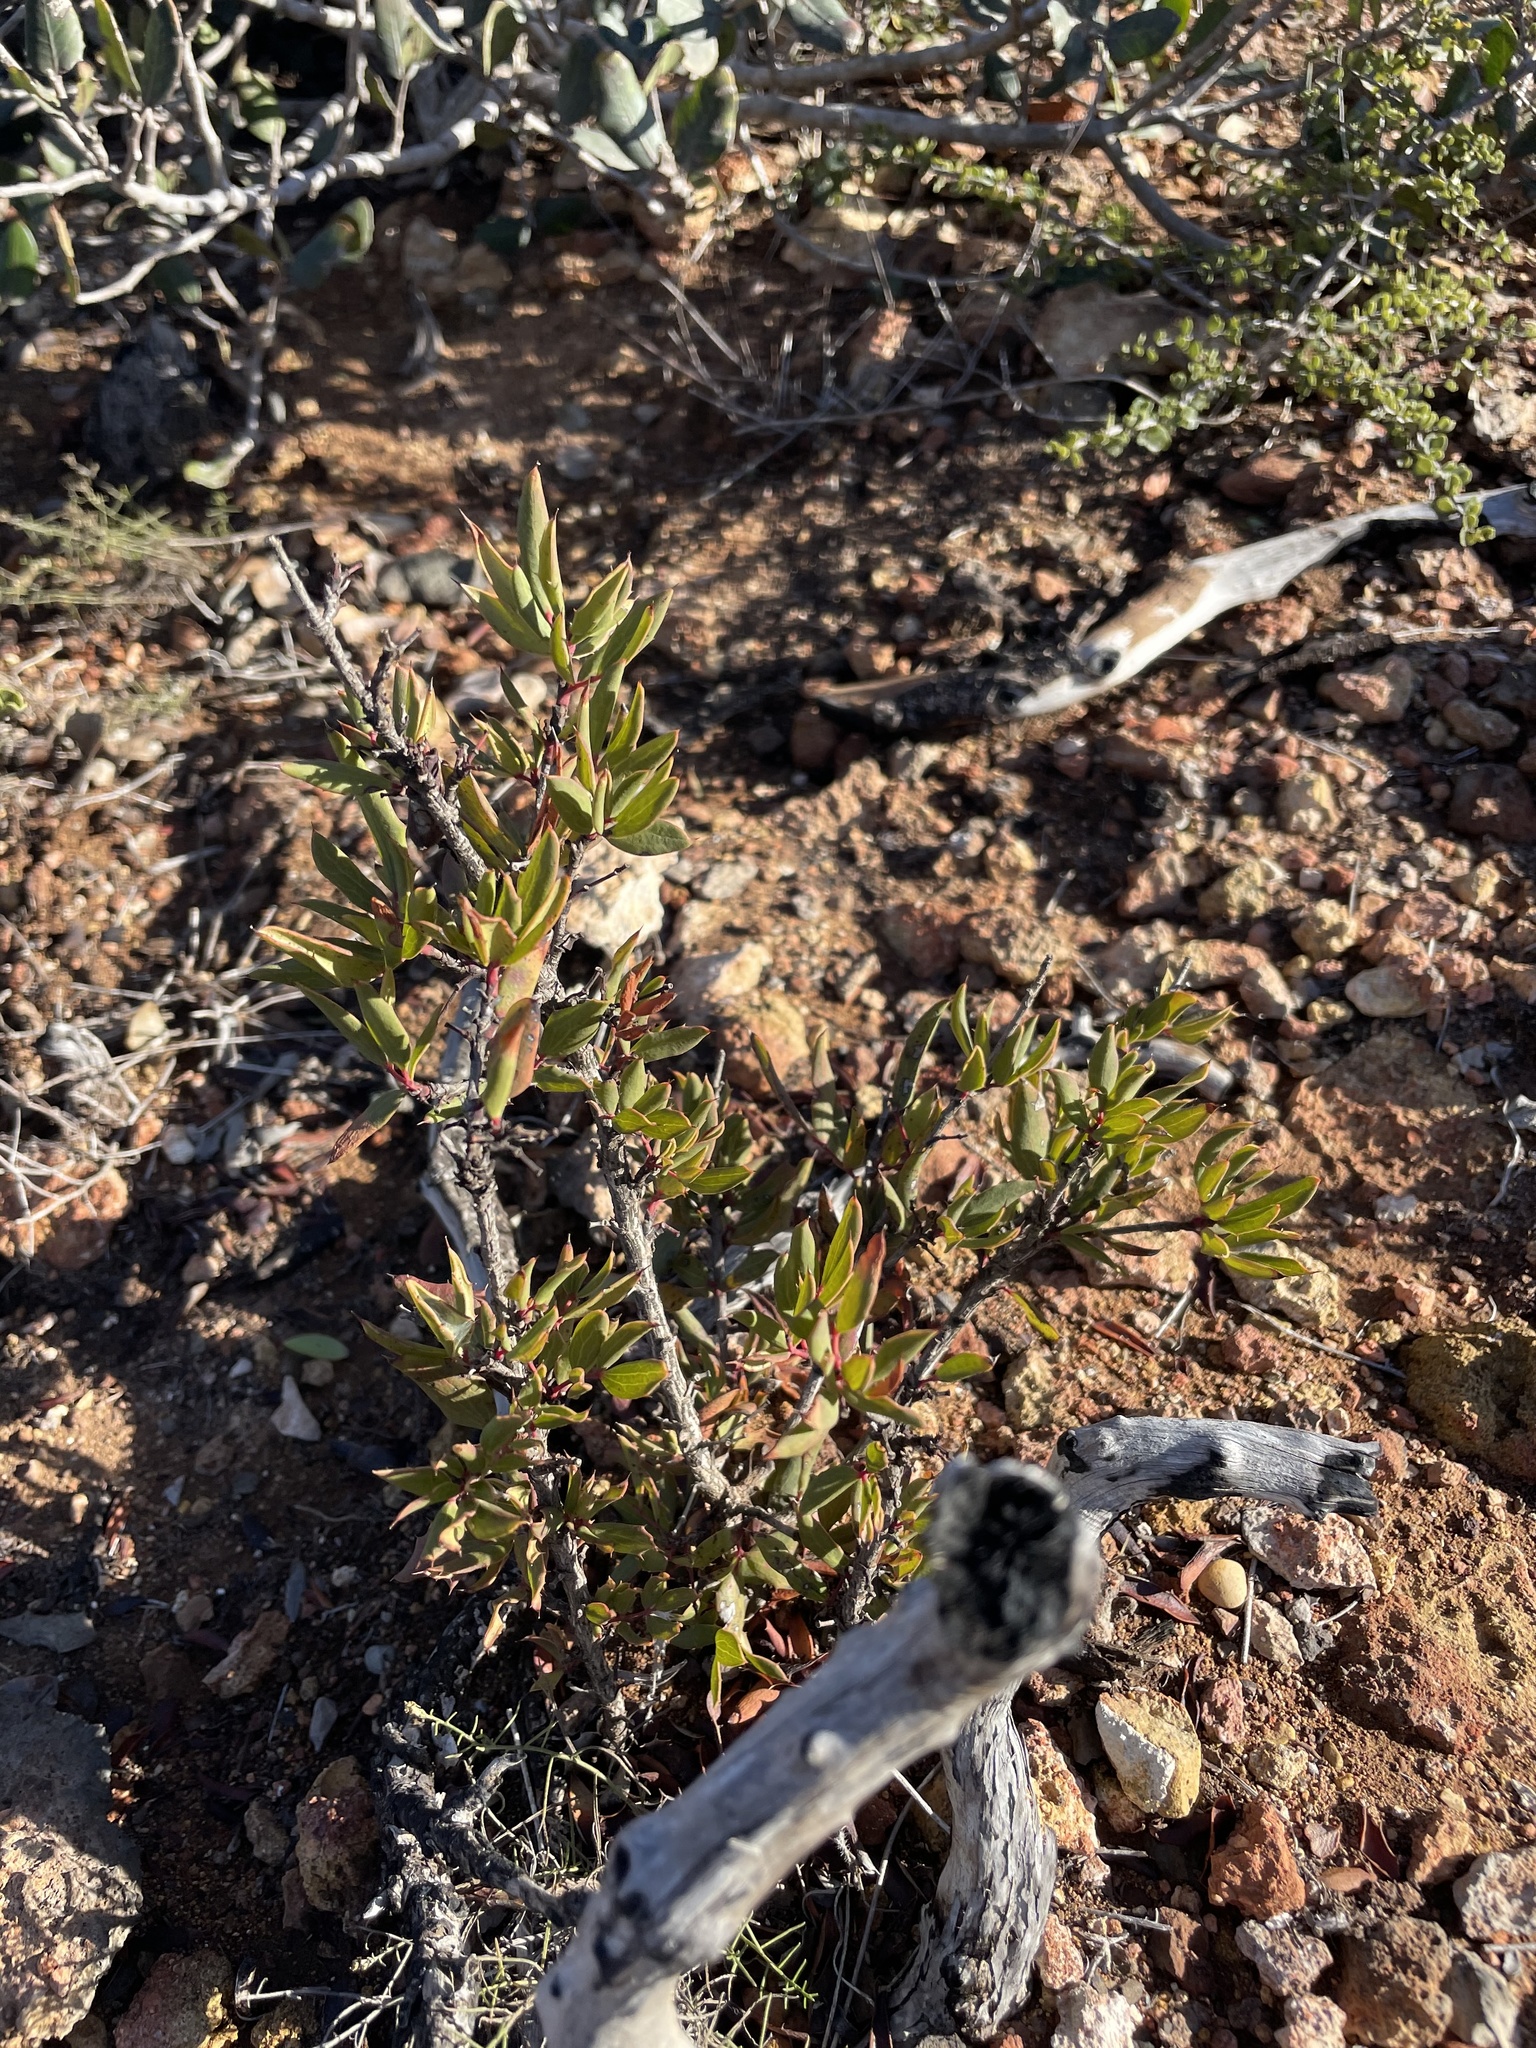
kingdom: Plantae
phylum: Tracheophyta
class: Magnoliopsida
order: Ranunculales
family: Berberidaceae
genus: Moranothamnus
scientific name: Moranothamnus claireae
